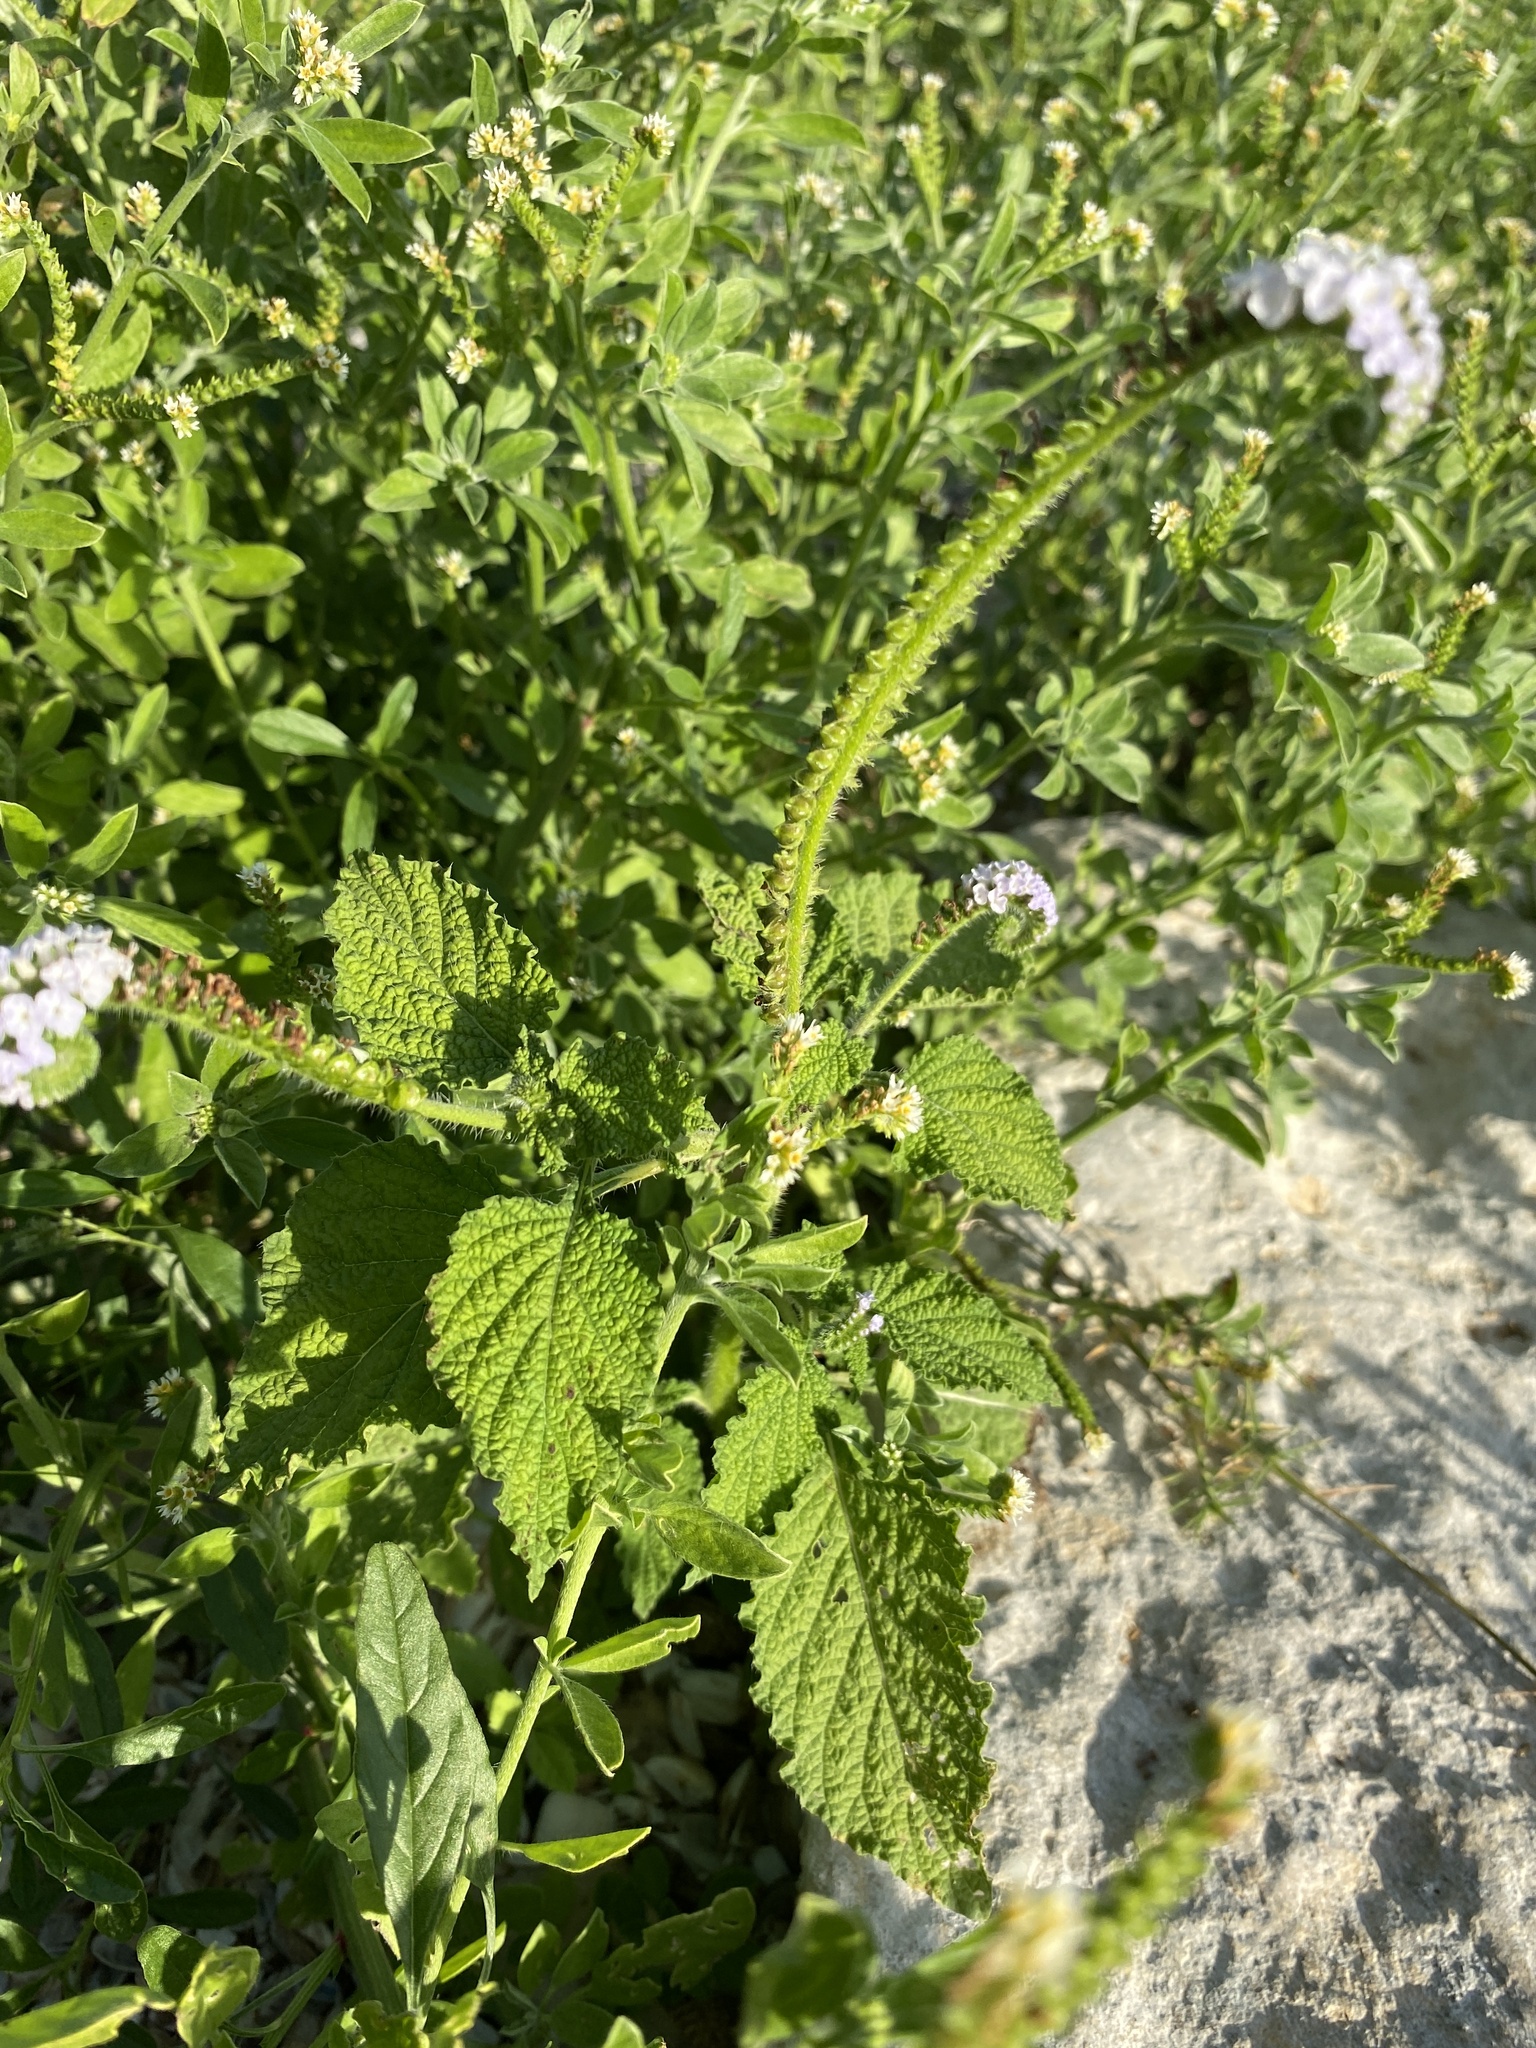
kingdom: Plantae
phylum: Tracheophyta
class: Magnoliopsida
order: Boraginales
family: Heliotropiaceae
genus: Heliotropium
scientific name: Heliotropium indicum
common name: Indian heliotrope
